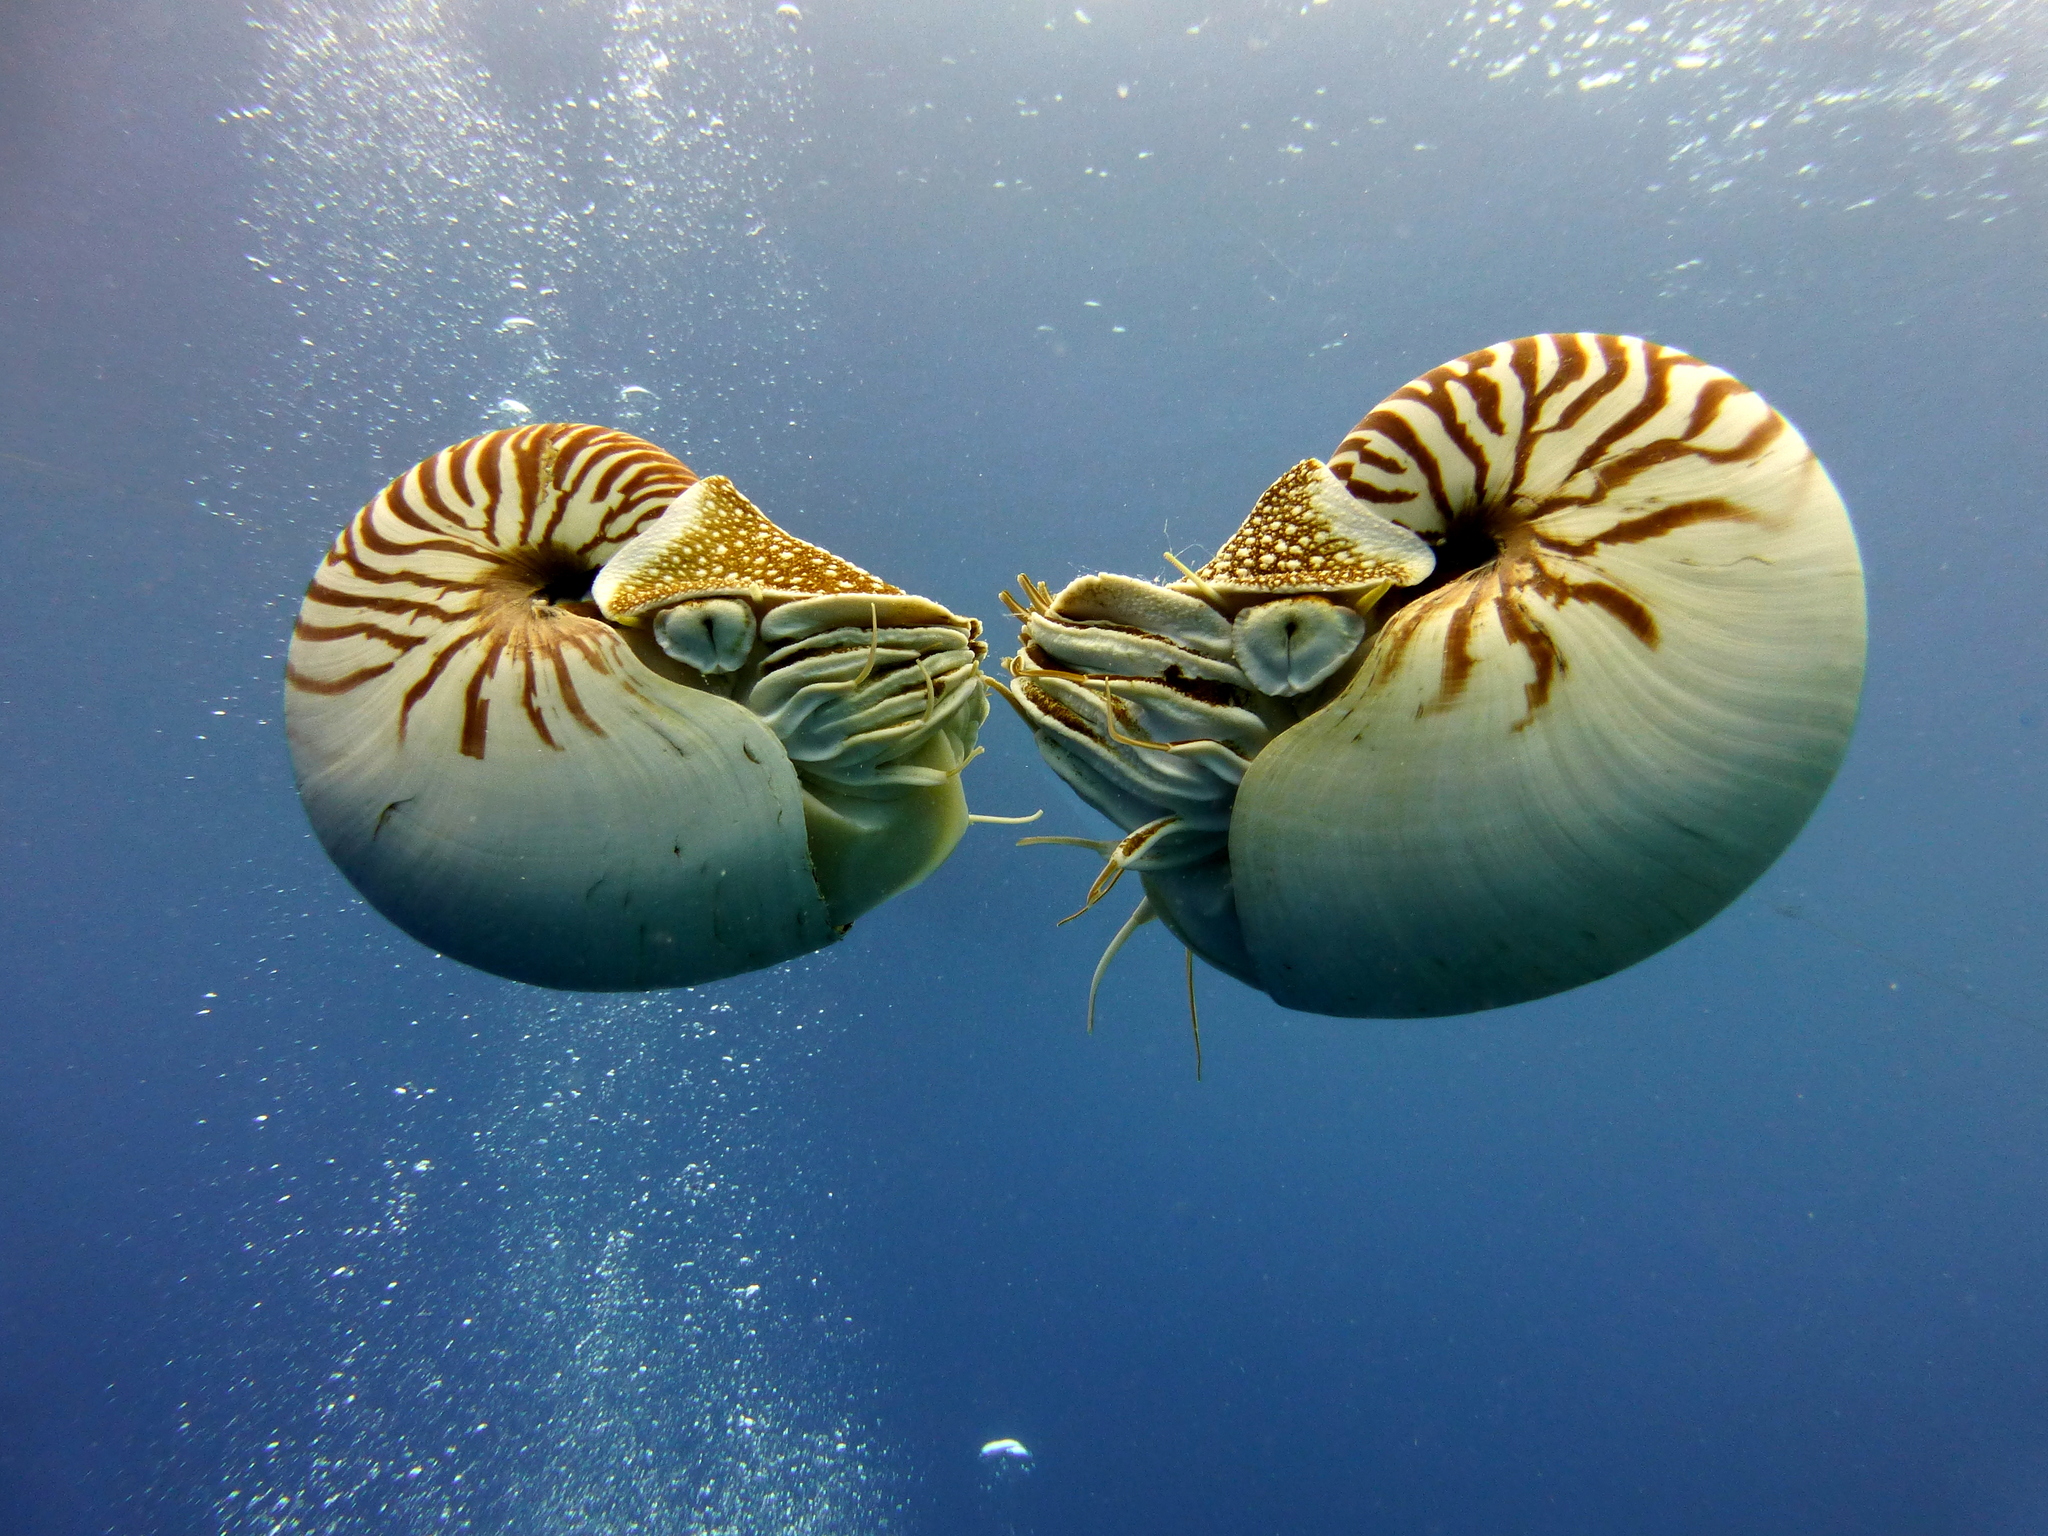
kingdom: Animalia
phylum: Mollusca
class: Cephalopoda
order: Nautilida
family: Nautilidae
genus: Nautilus
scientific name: Nautilus belauensis
